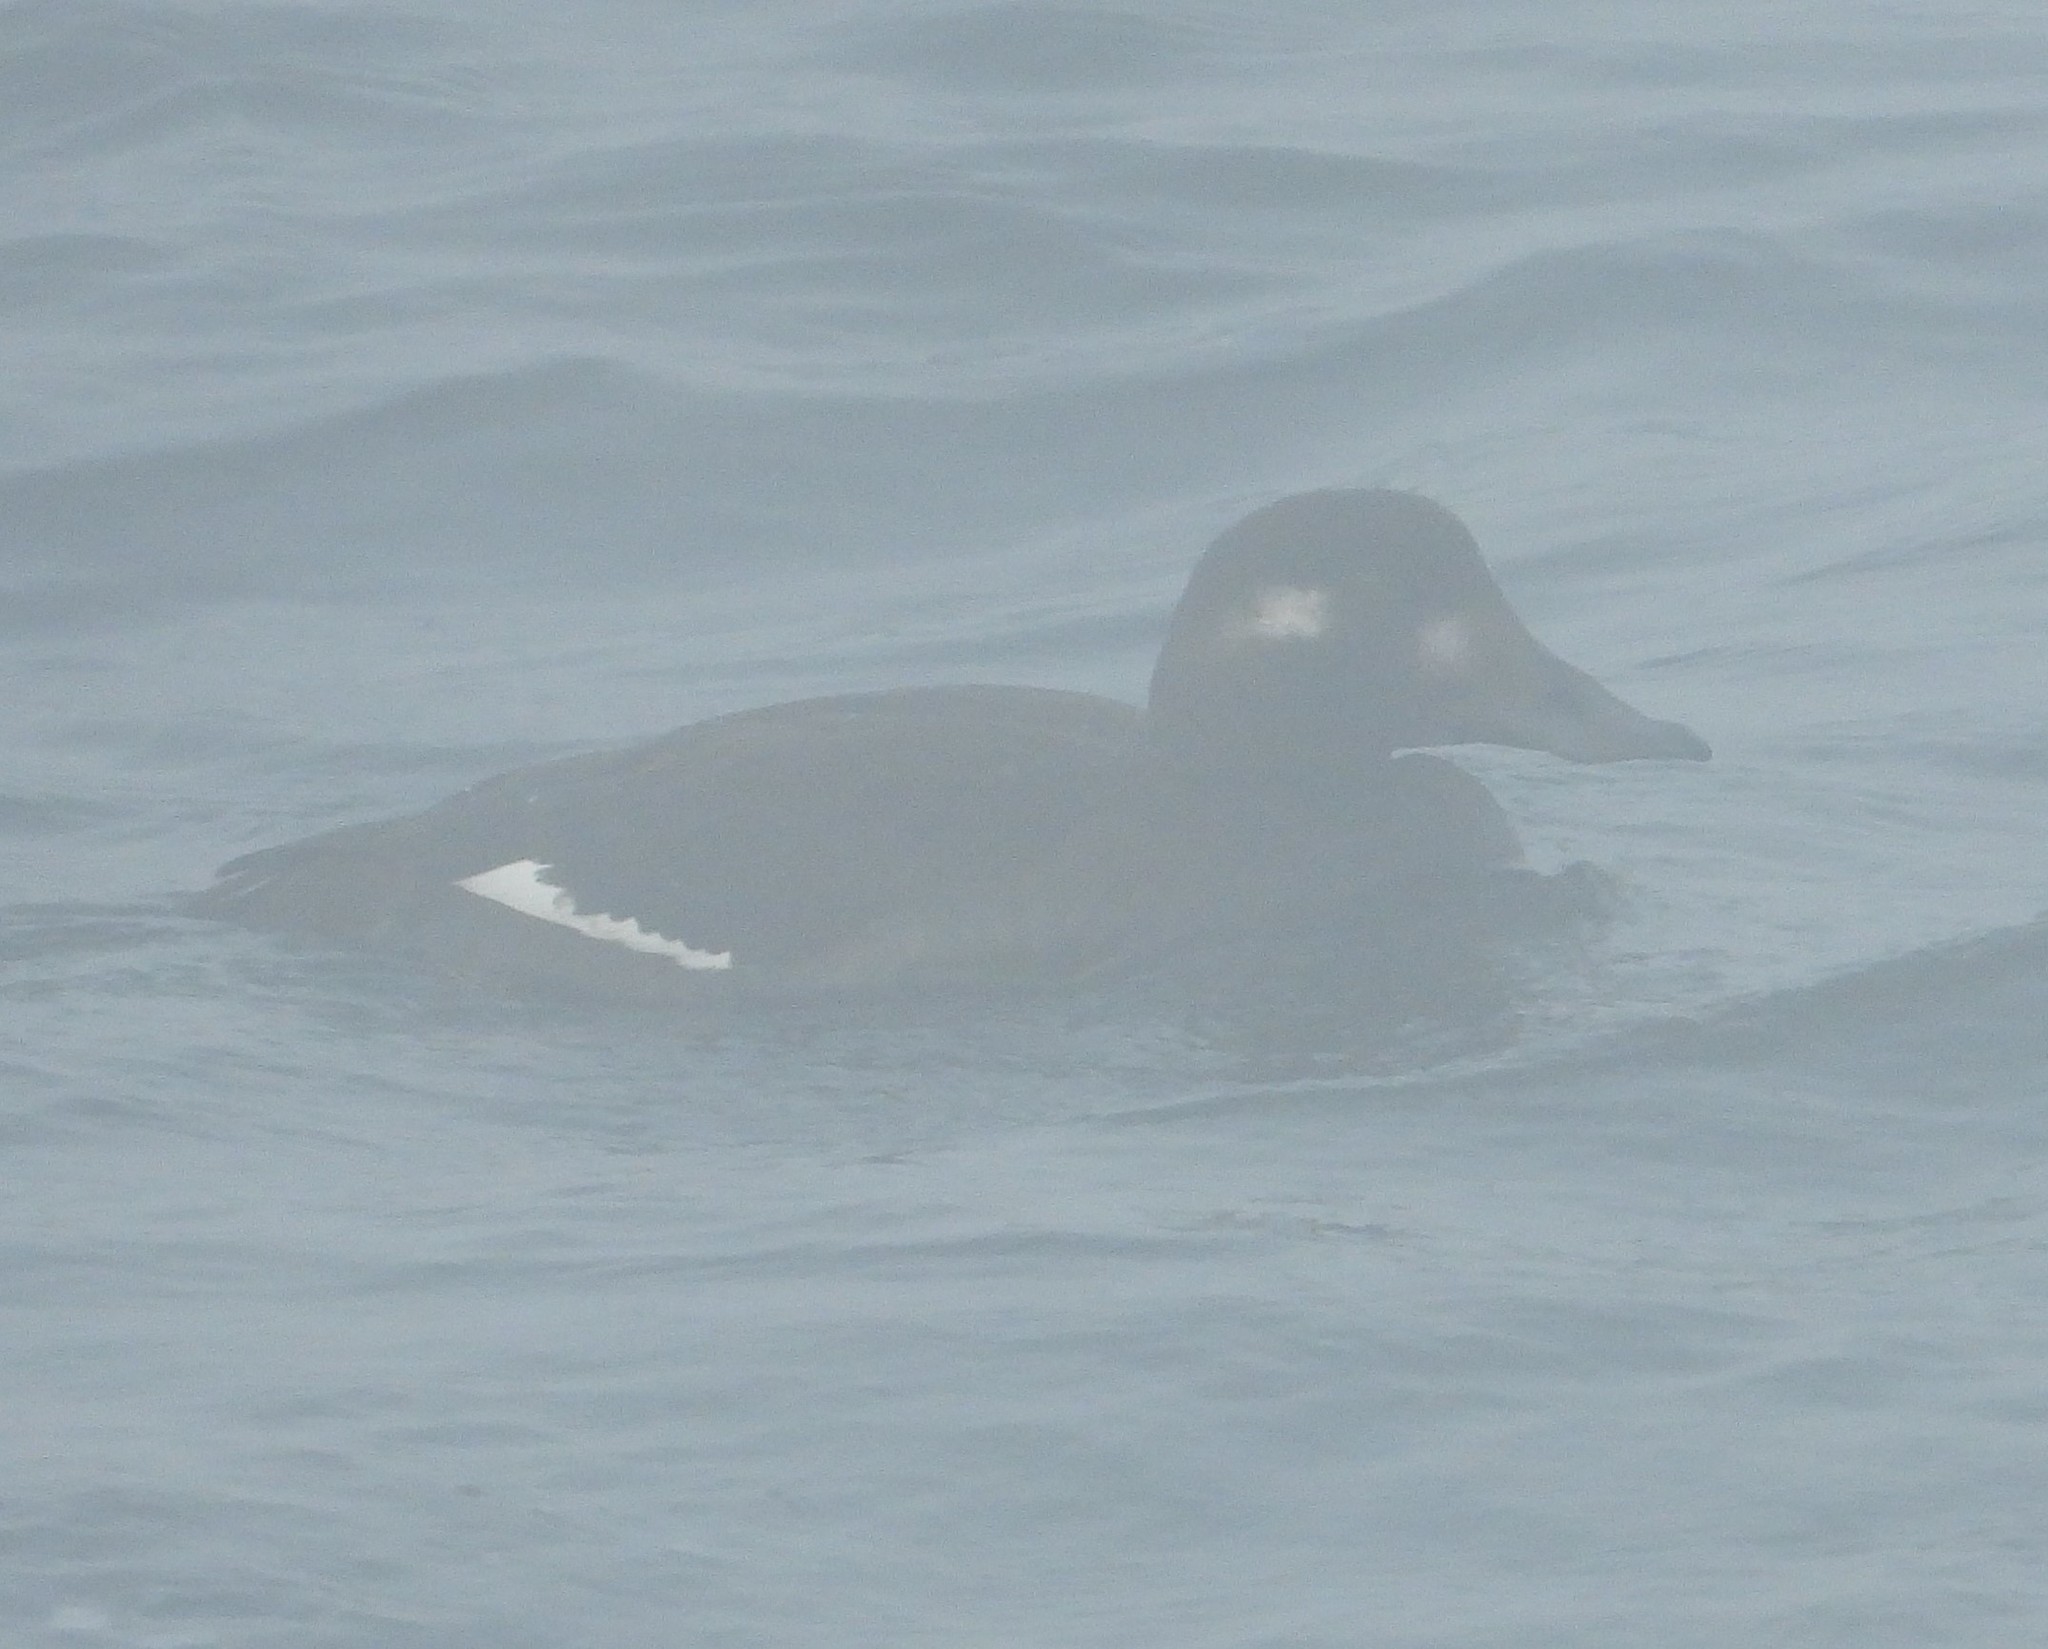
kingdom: Animalia
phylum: Chordata
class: Aves
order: Anseriformes
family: Anatidae
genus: Melanitta
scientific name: Melanitta deglandi
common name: White-winged scoter
